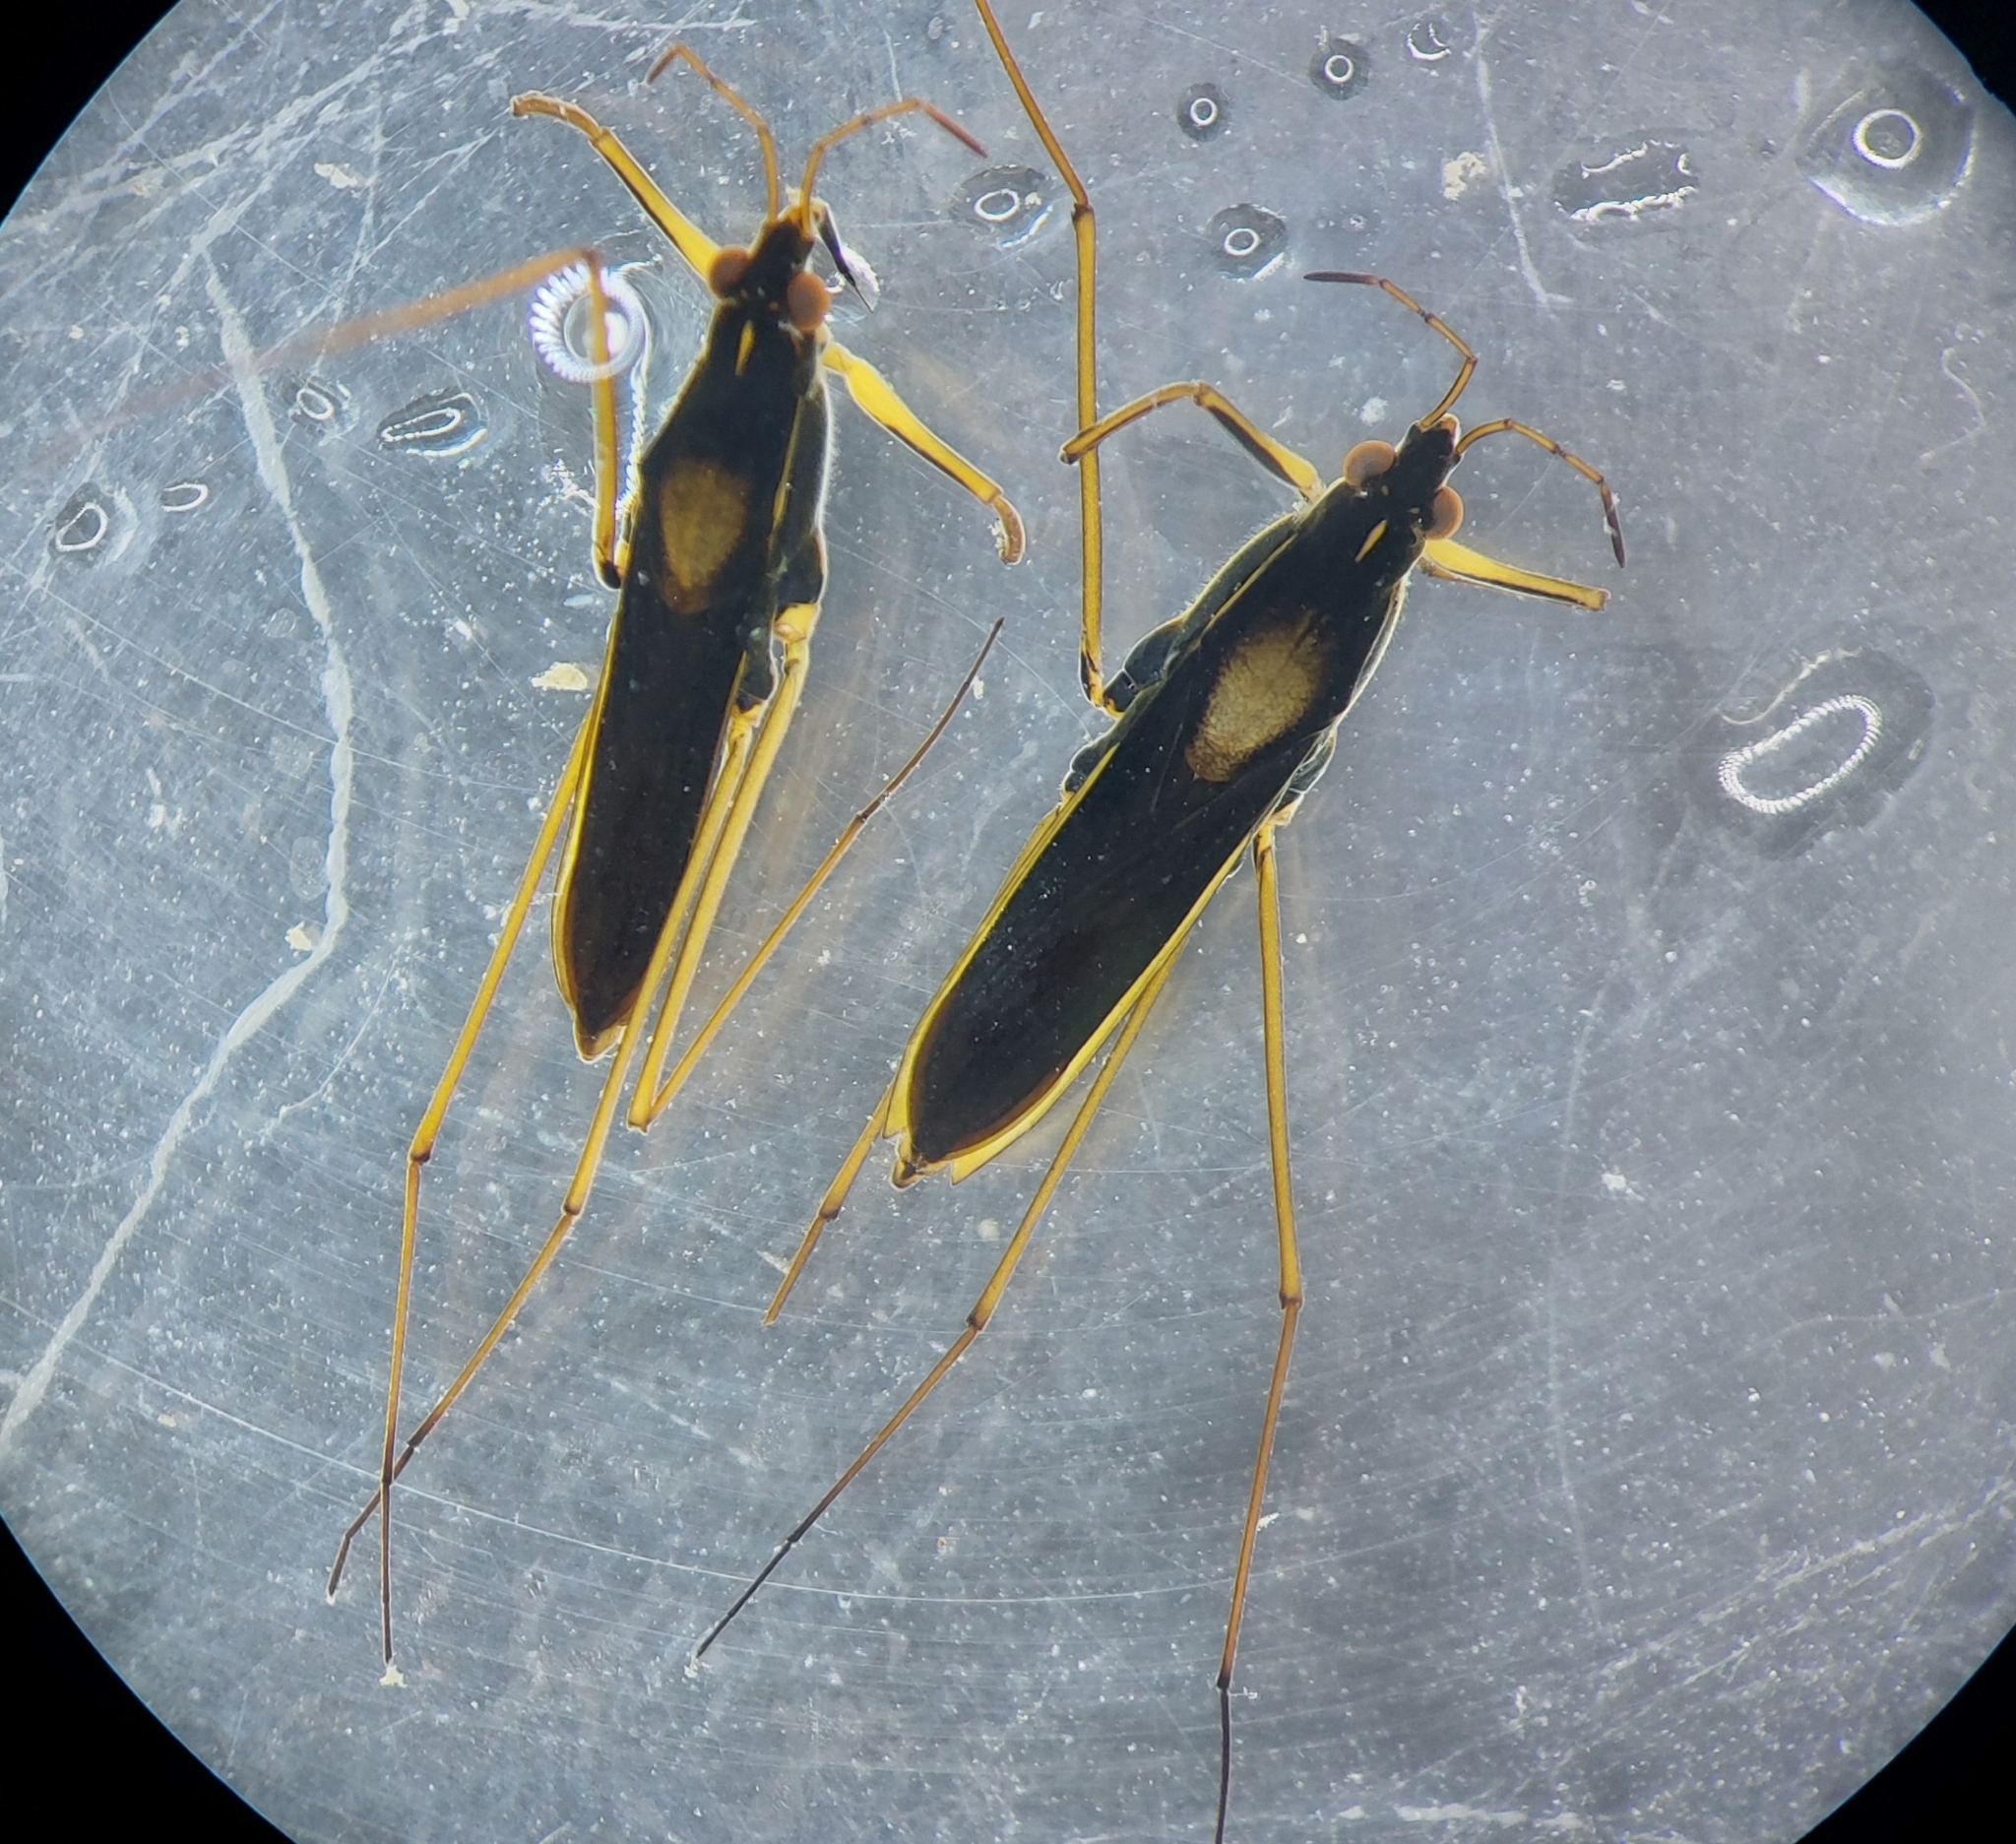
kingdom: Animalia
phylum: Arthropoda
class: Insecta
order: Hemiptera
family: Gerridae
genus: Gerris
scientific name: Gerris thoracicus
